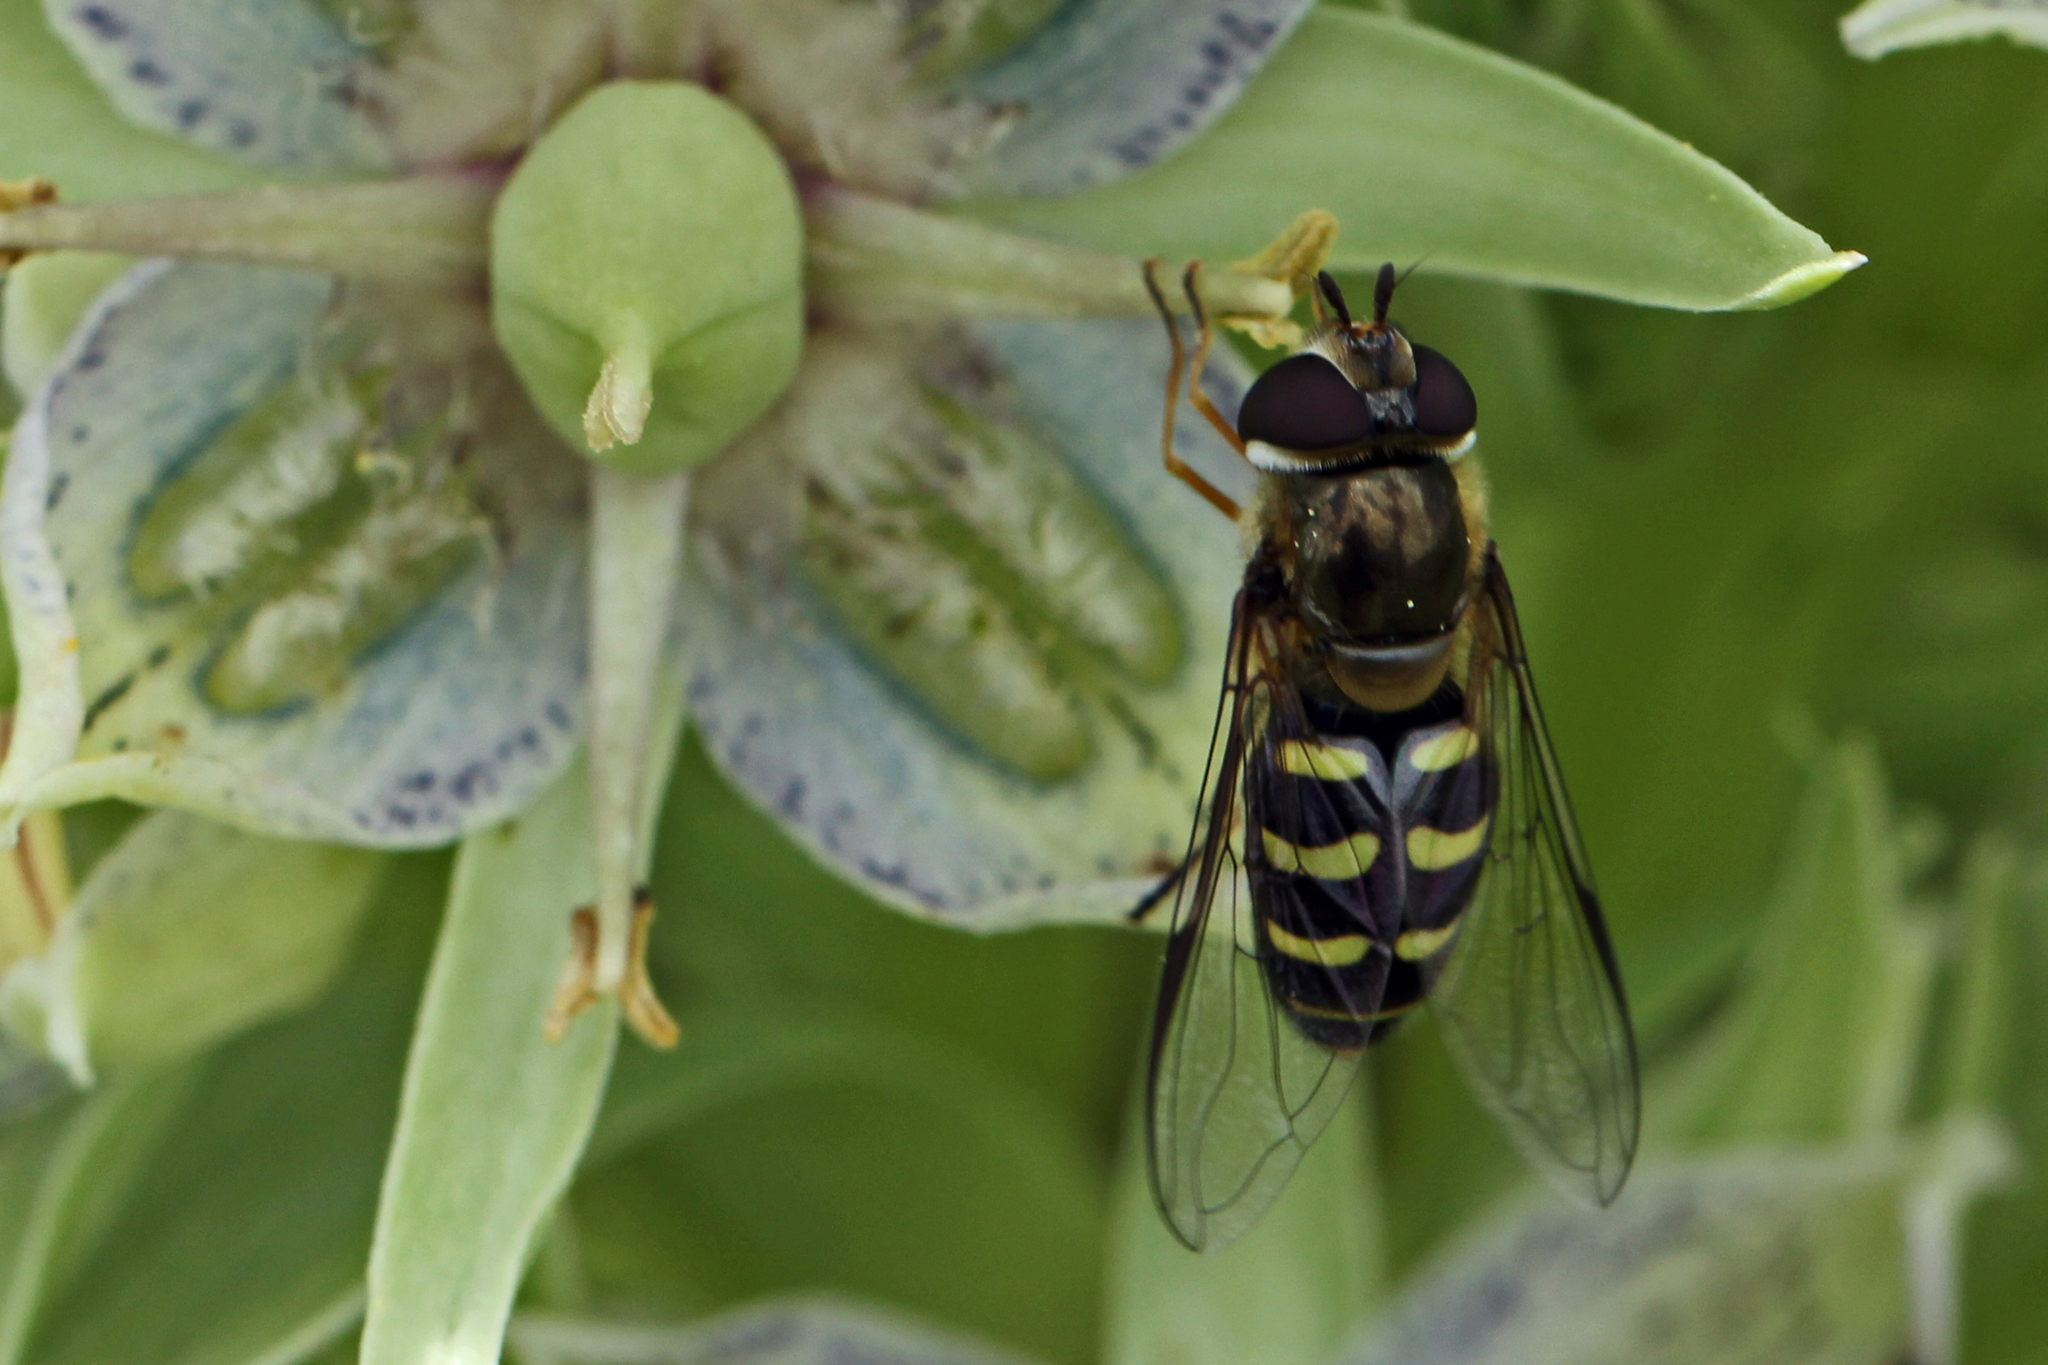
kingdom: Animalia
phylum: Arthropoda
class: Insecta
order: Diptera
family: Syrphidae
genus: Lapposyrphus
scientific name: Lapposyrphus lapponicus
